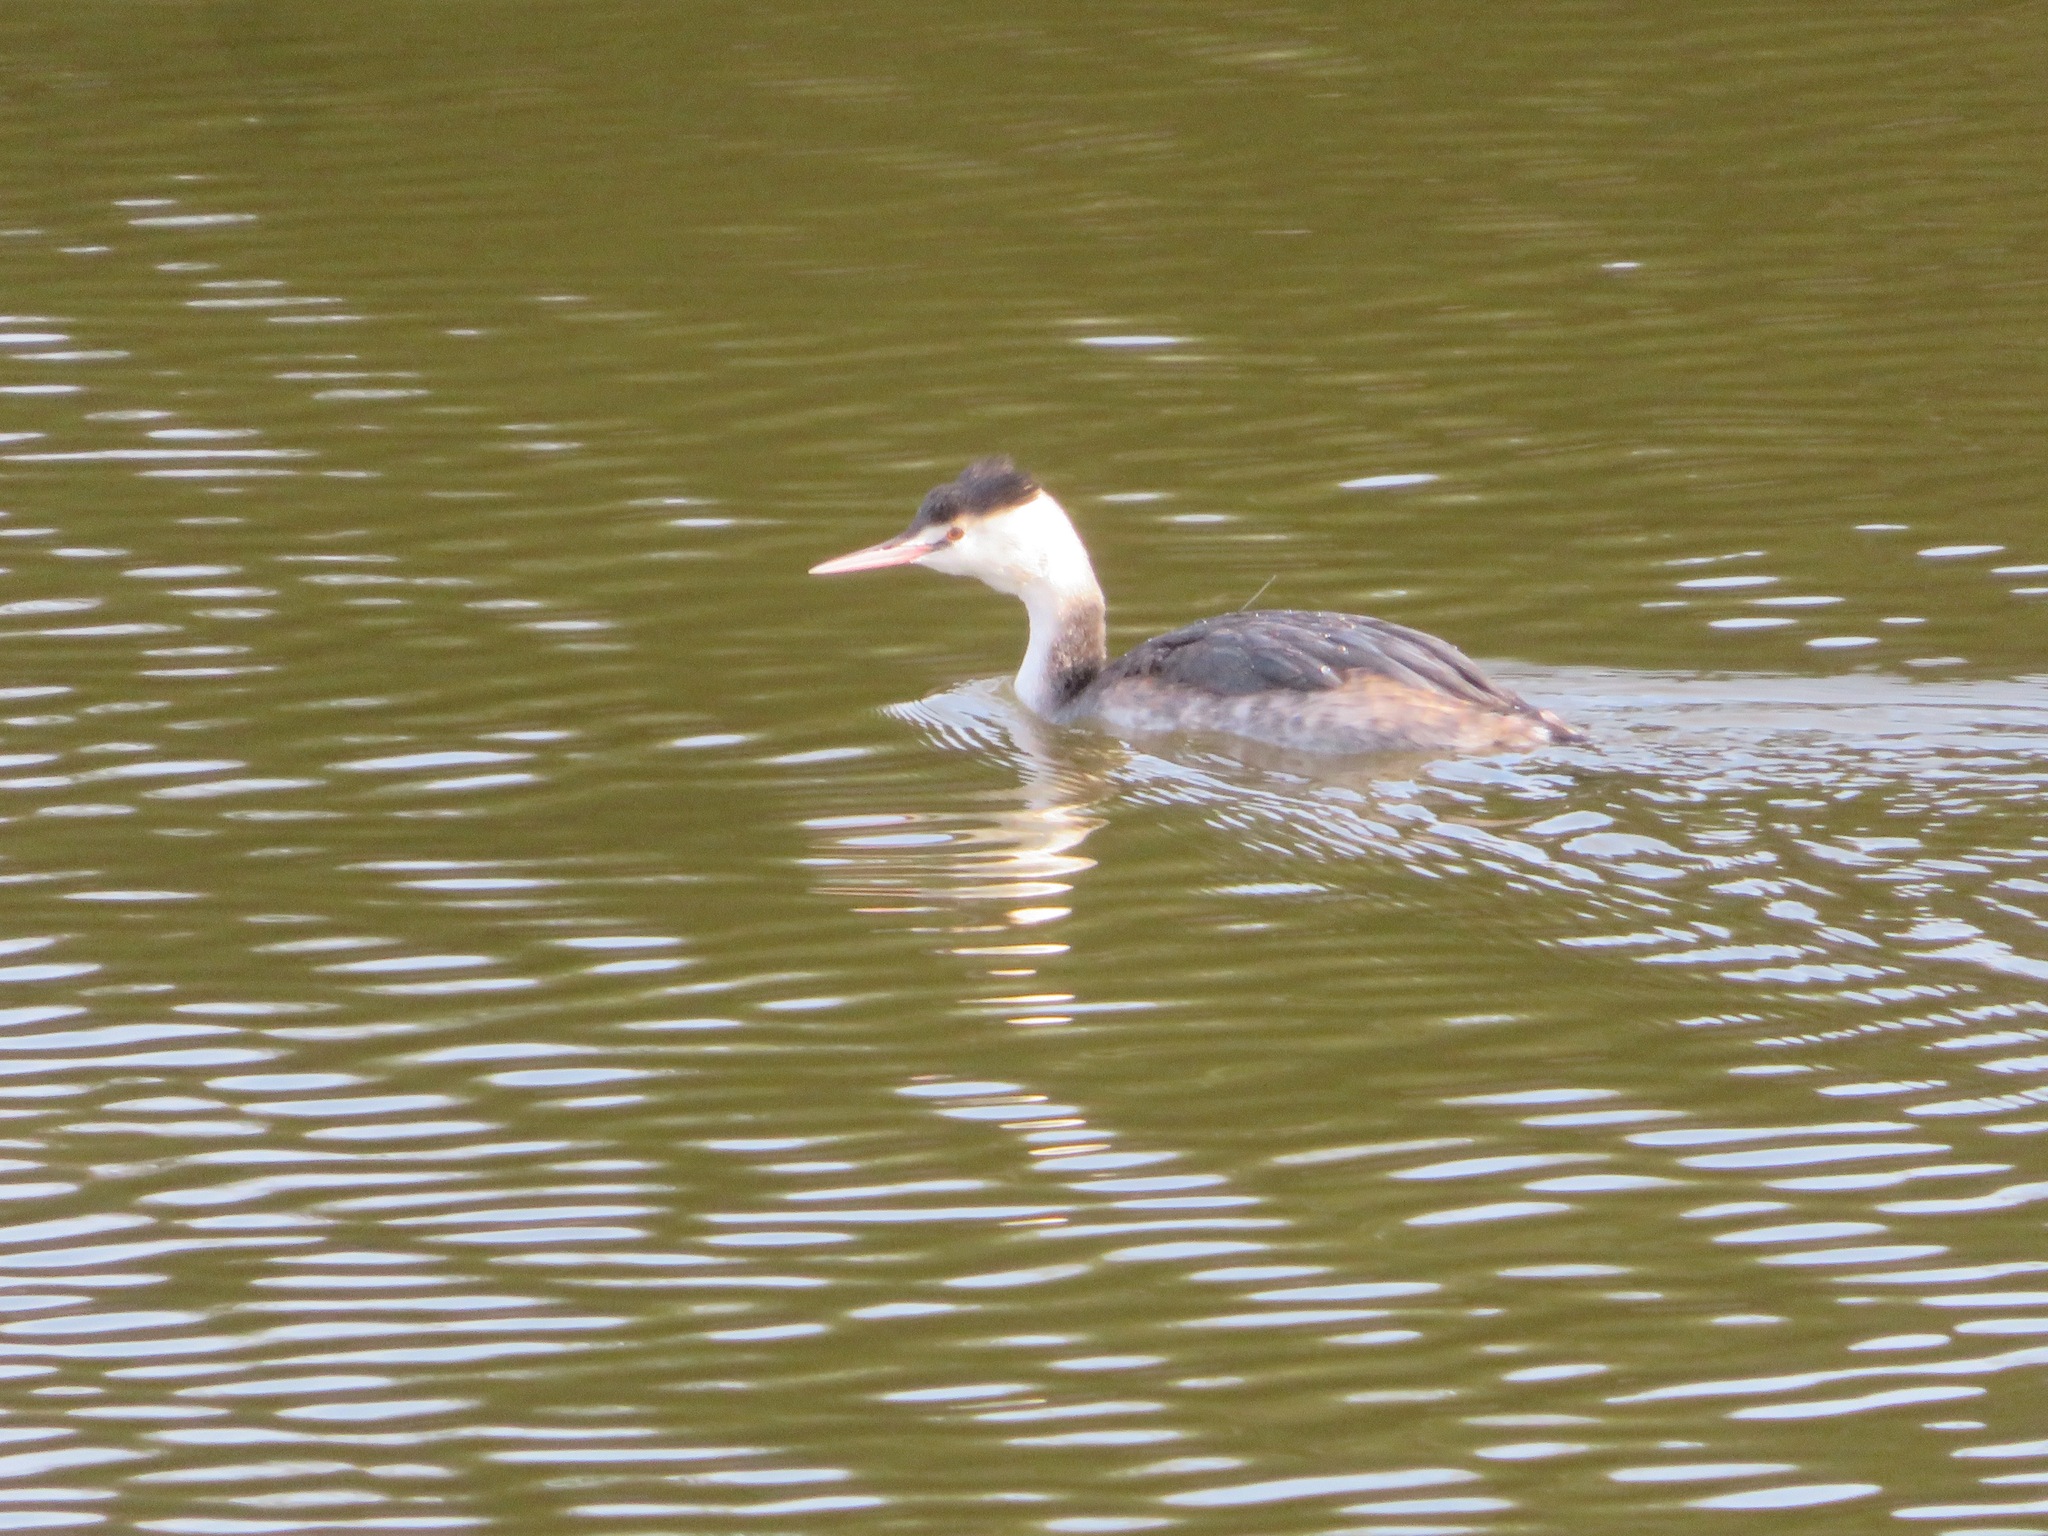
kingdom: Animalia
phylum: Chordata
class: Aves
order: Podicipediformes
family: Podicipedidae
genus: Podiceps
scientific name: Podiceps cristatus
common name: Great crested grebe
